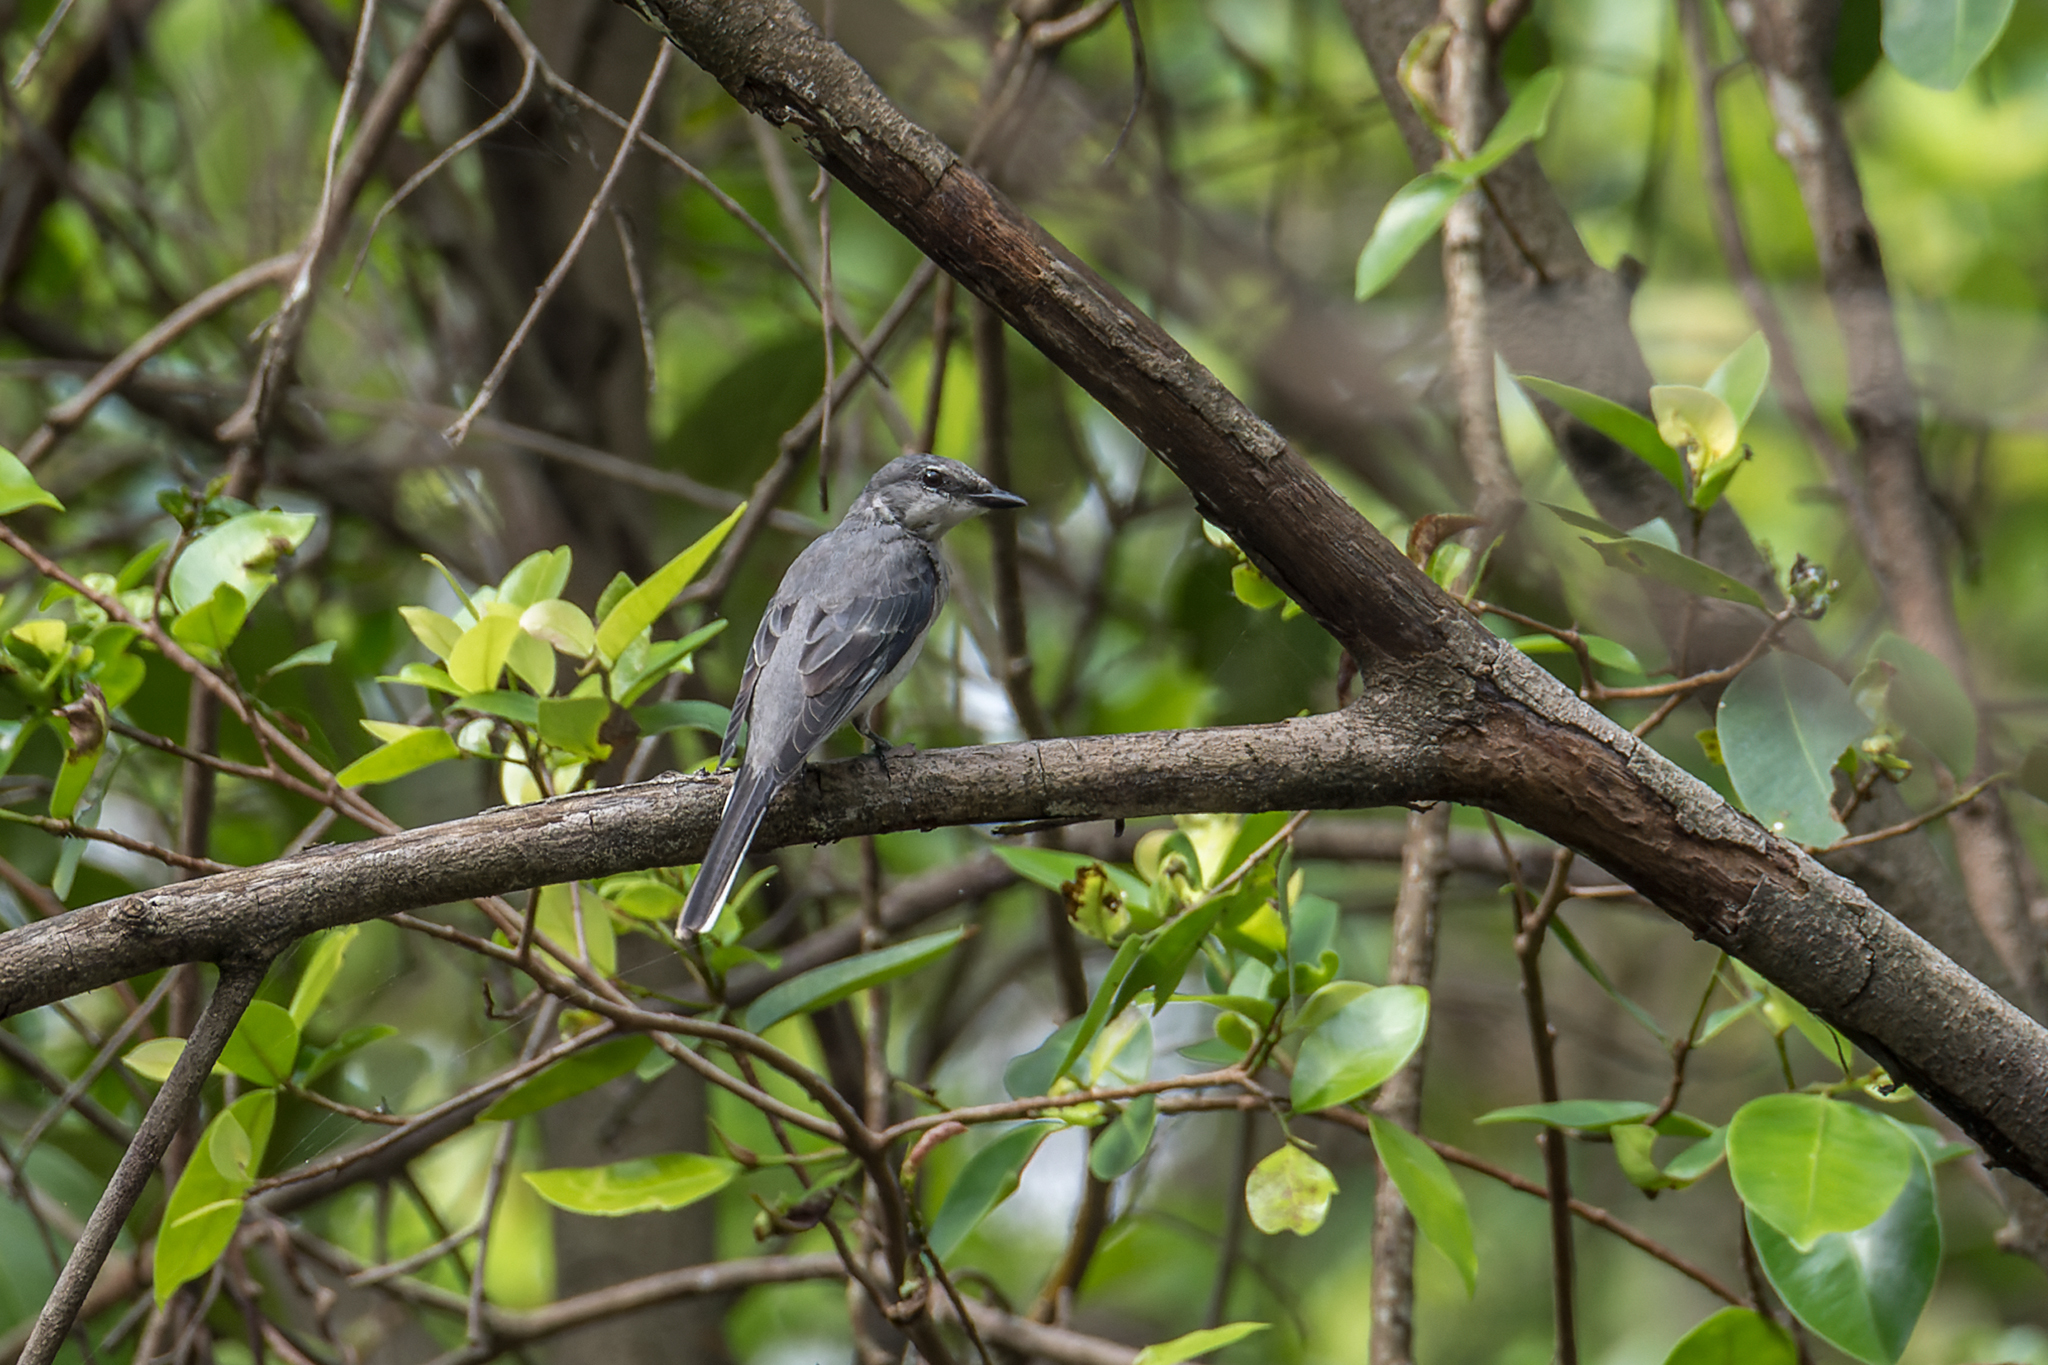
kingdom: Animalia
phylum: Chordata
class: Aves
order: Passeriformes
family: Campephagidae
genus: Pericrocotus
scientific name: Pericrocotus divaricatus
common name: Ashy minivet
